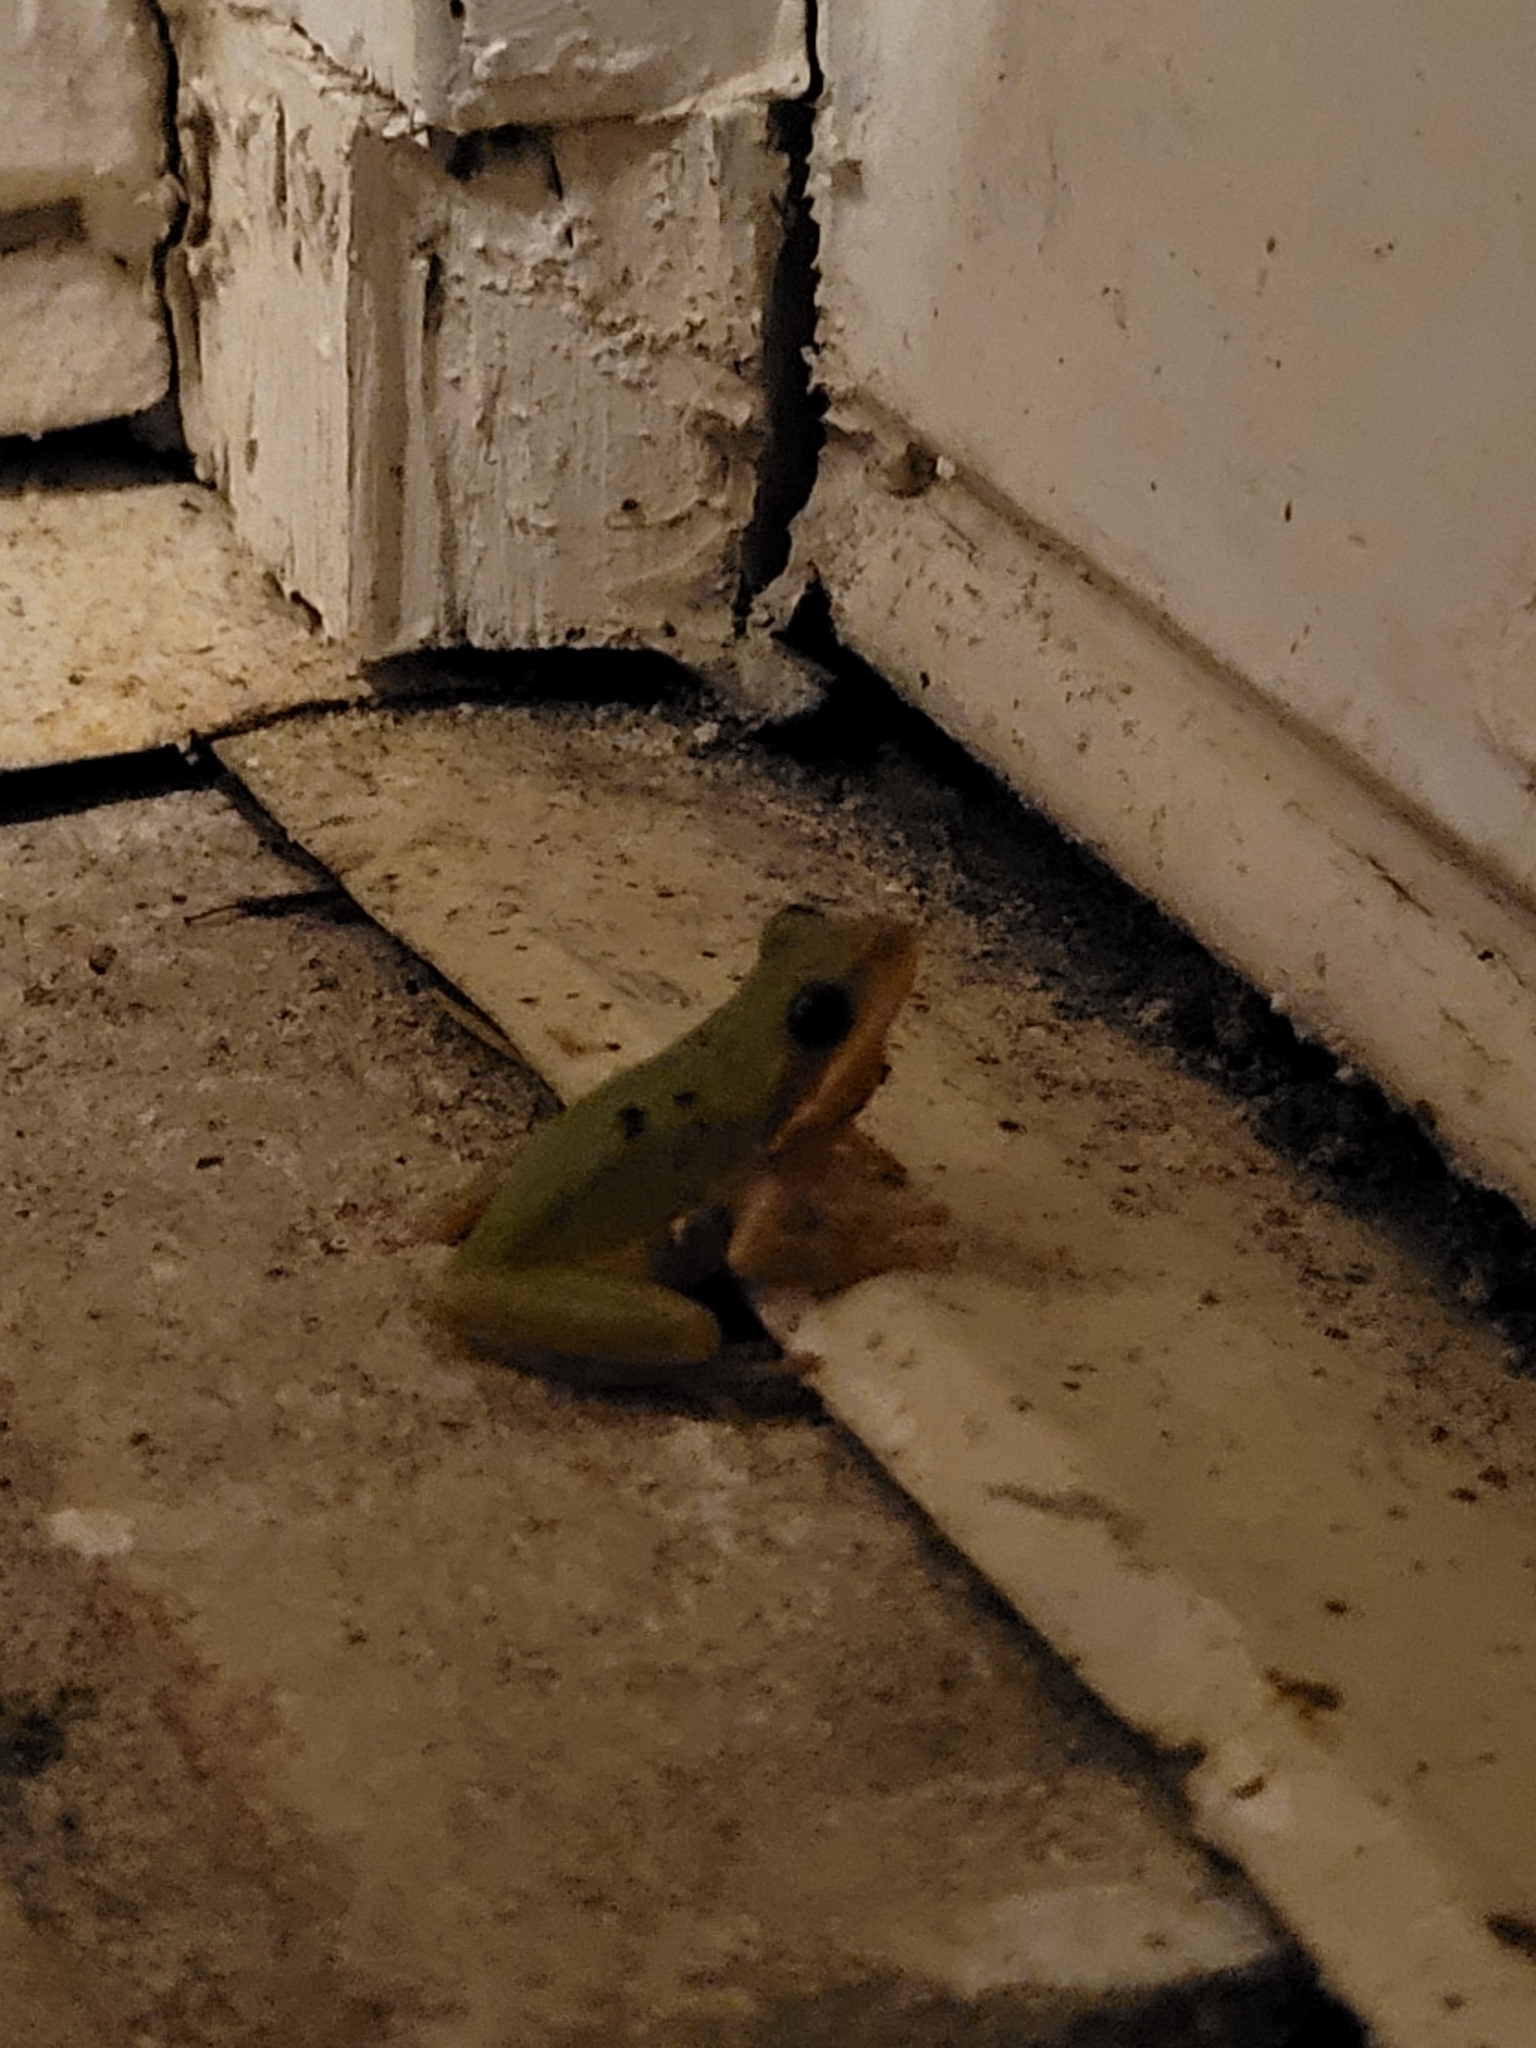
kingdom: Animalia
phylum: Chordata
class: Amphibia
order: Anura
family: Hylidae
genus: Dryophytes
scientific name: Dryophytes squirellus
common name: Squirrel treefrog
